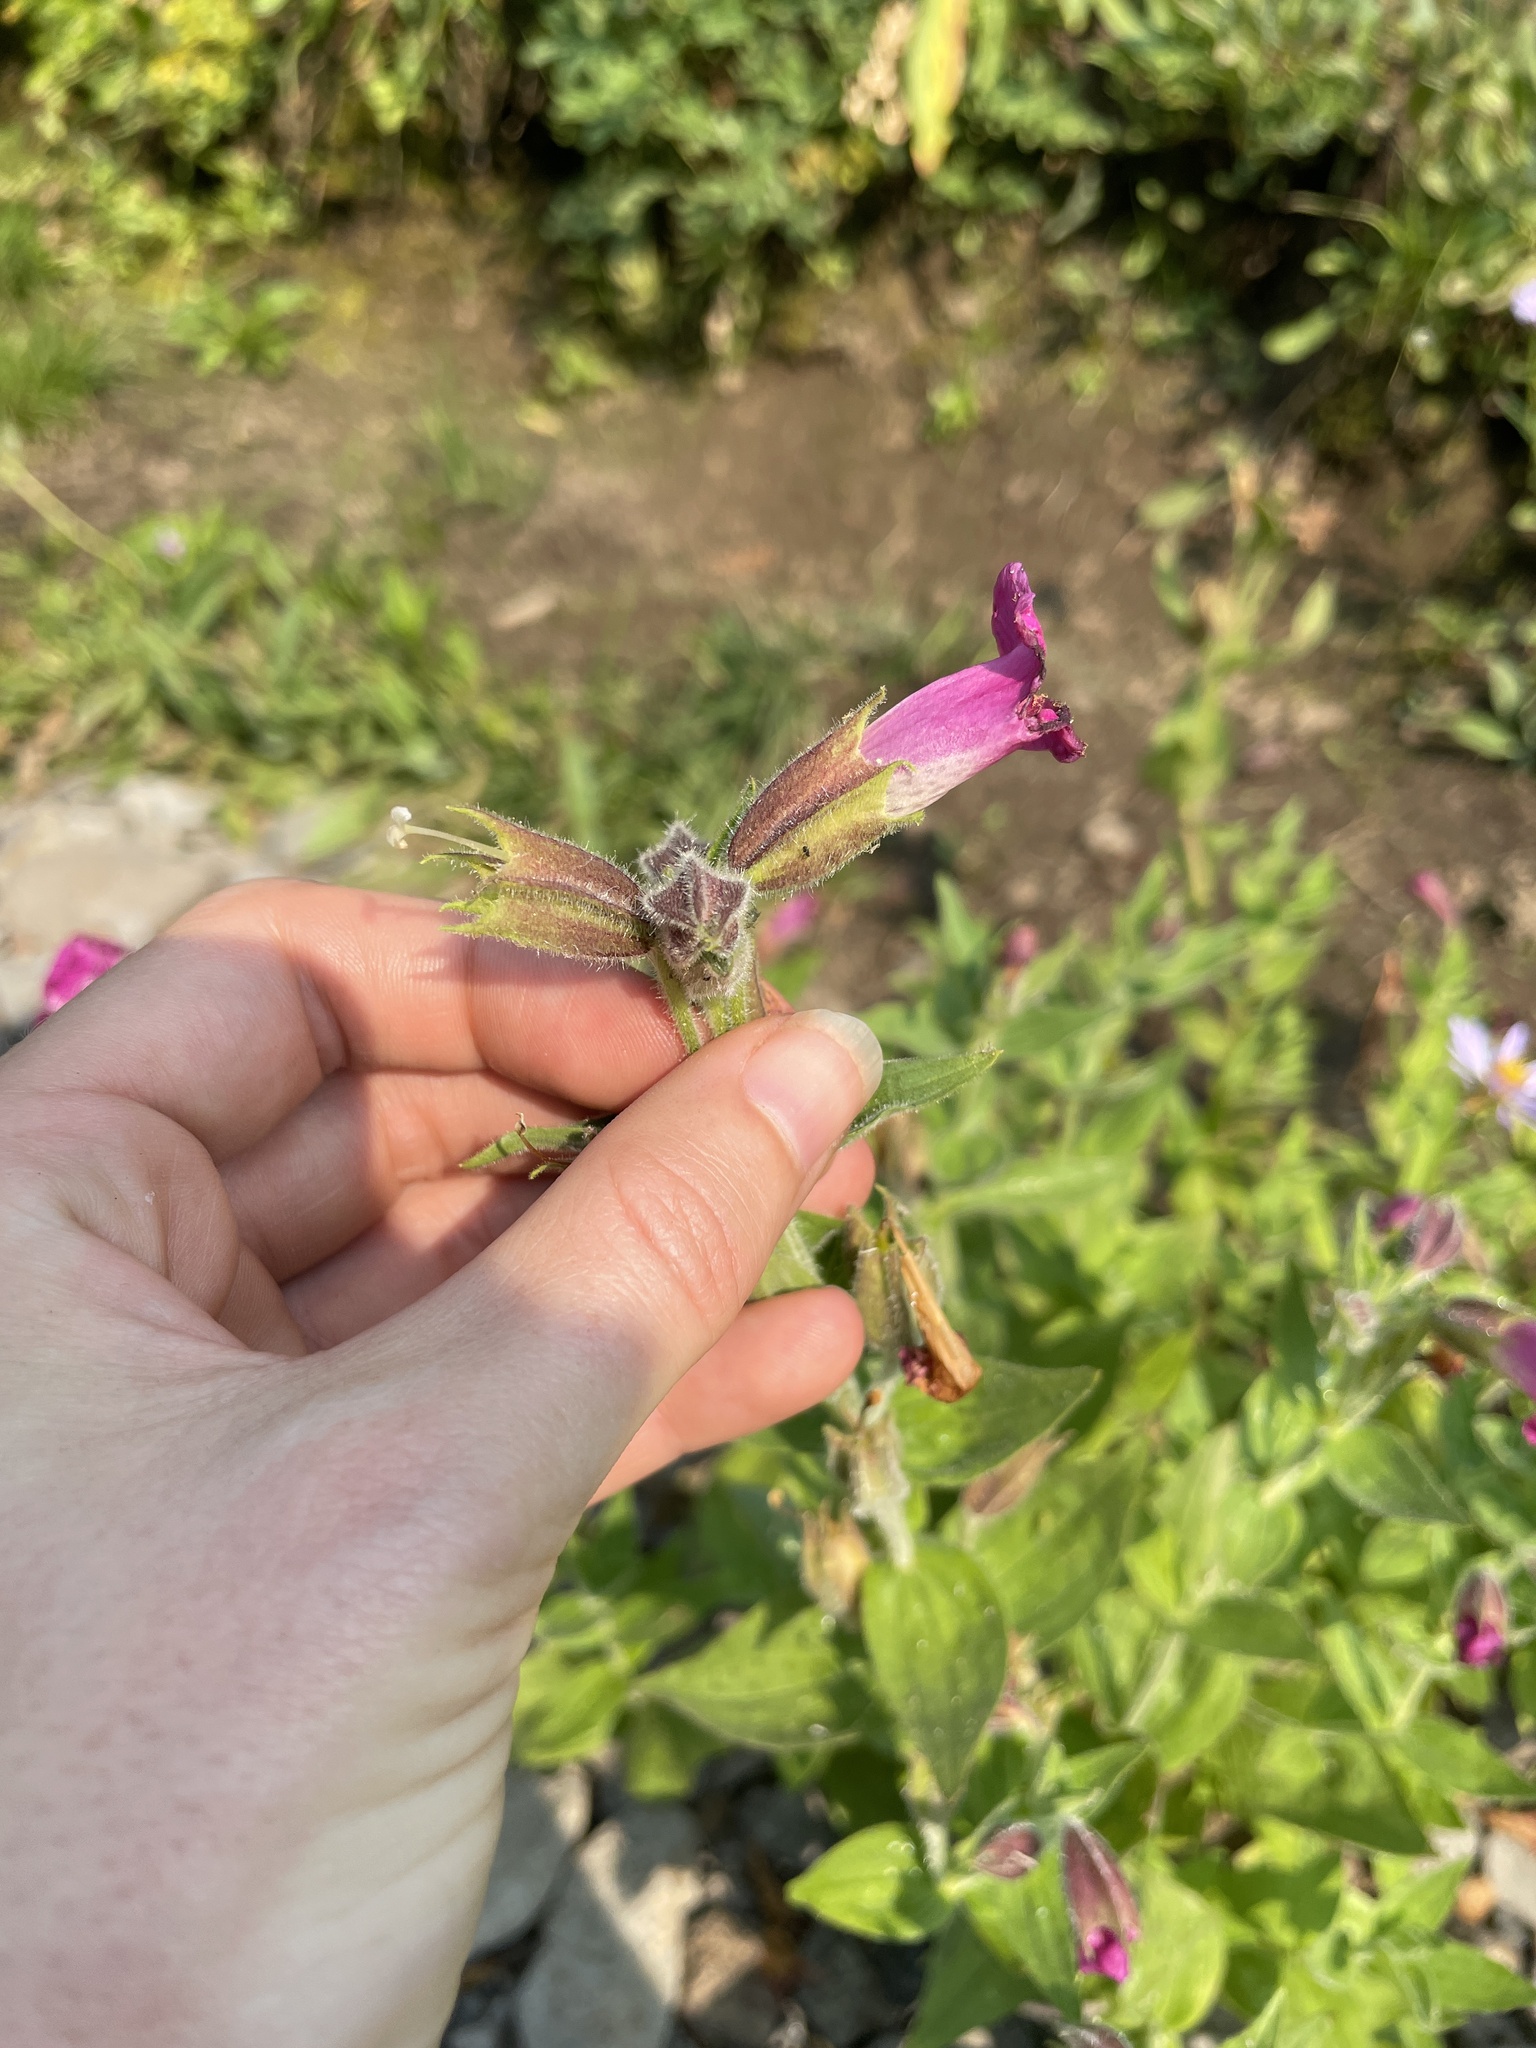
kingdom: Plantae
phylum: Tracheophyta
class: Magnoliopsida
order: Lamiales
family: Phrymaceae
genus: Erythranthe
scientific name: Erythranthe lewisii
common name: Lewis's monkey-flower
